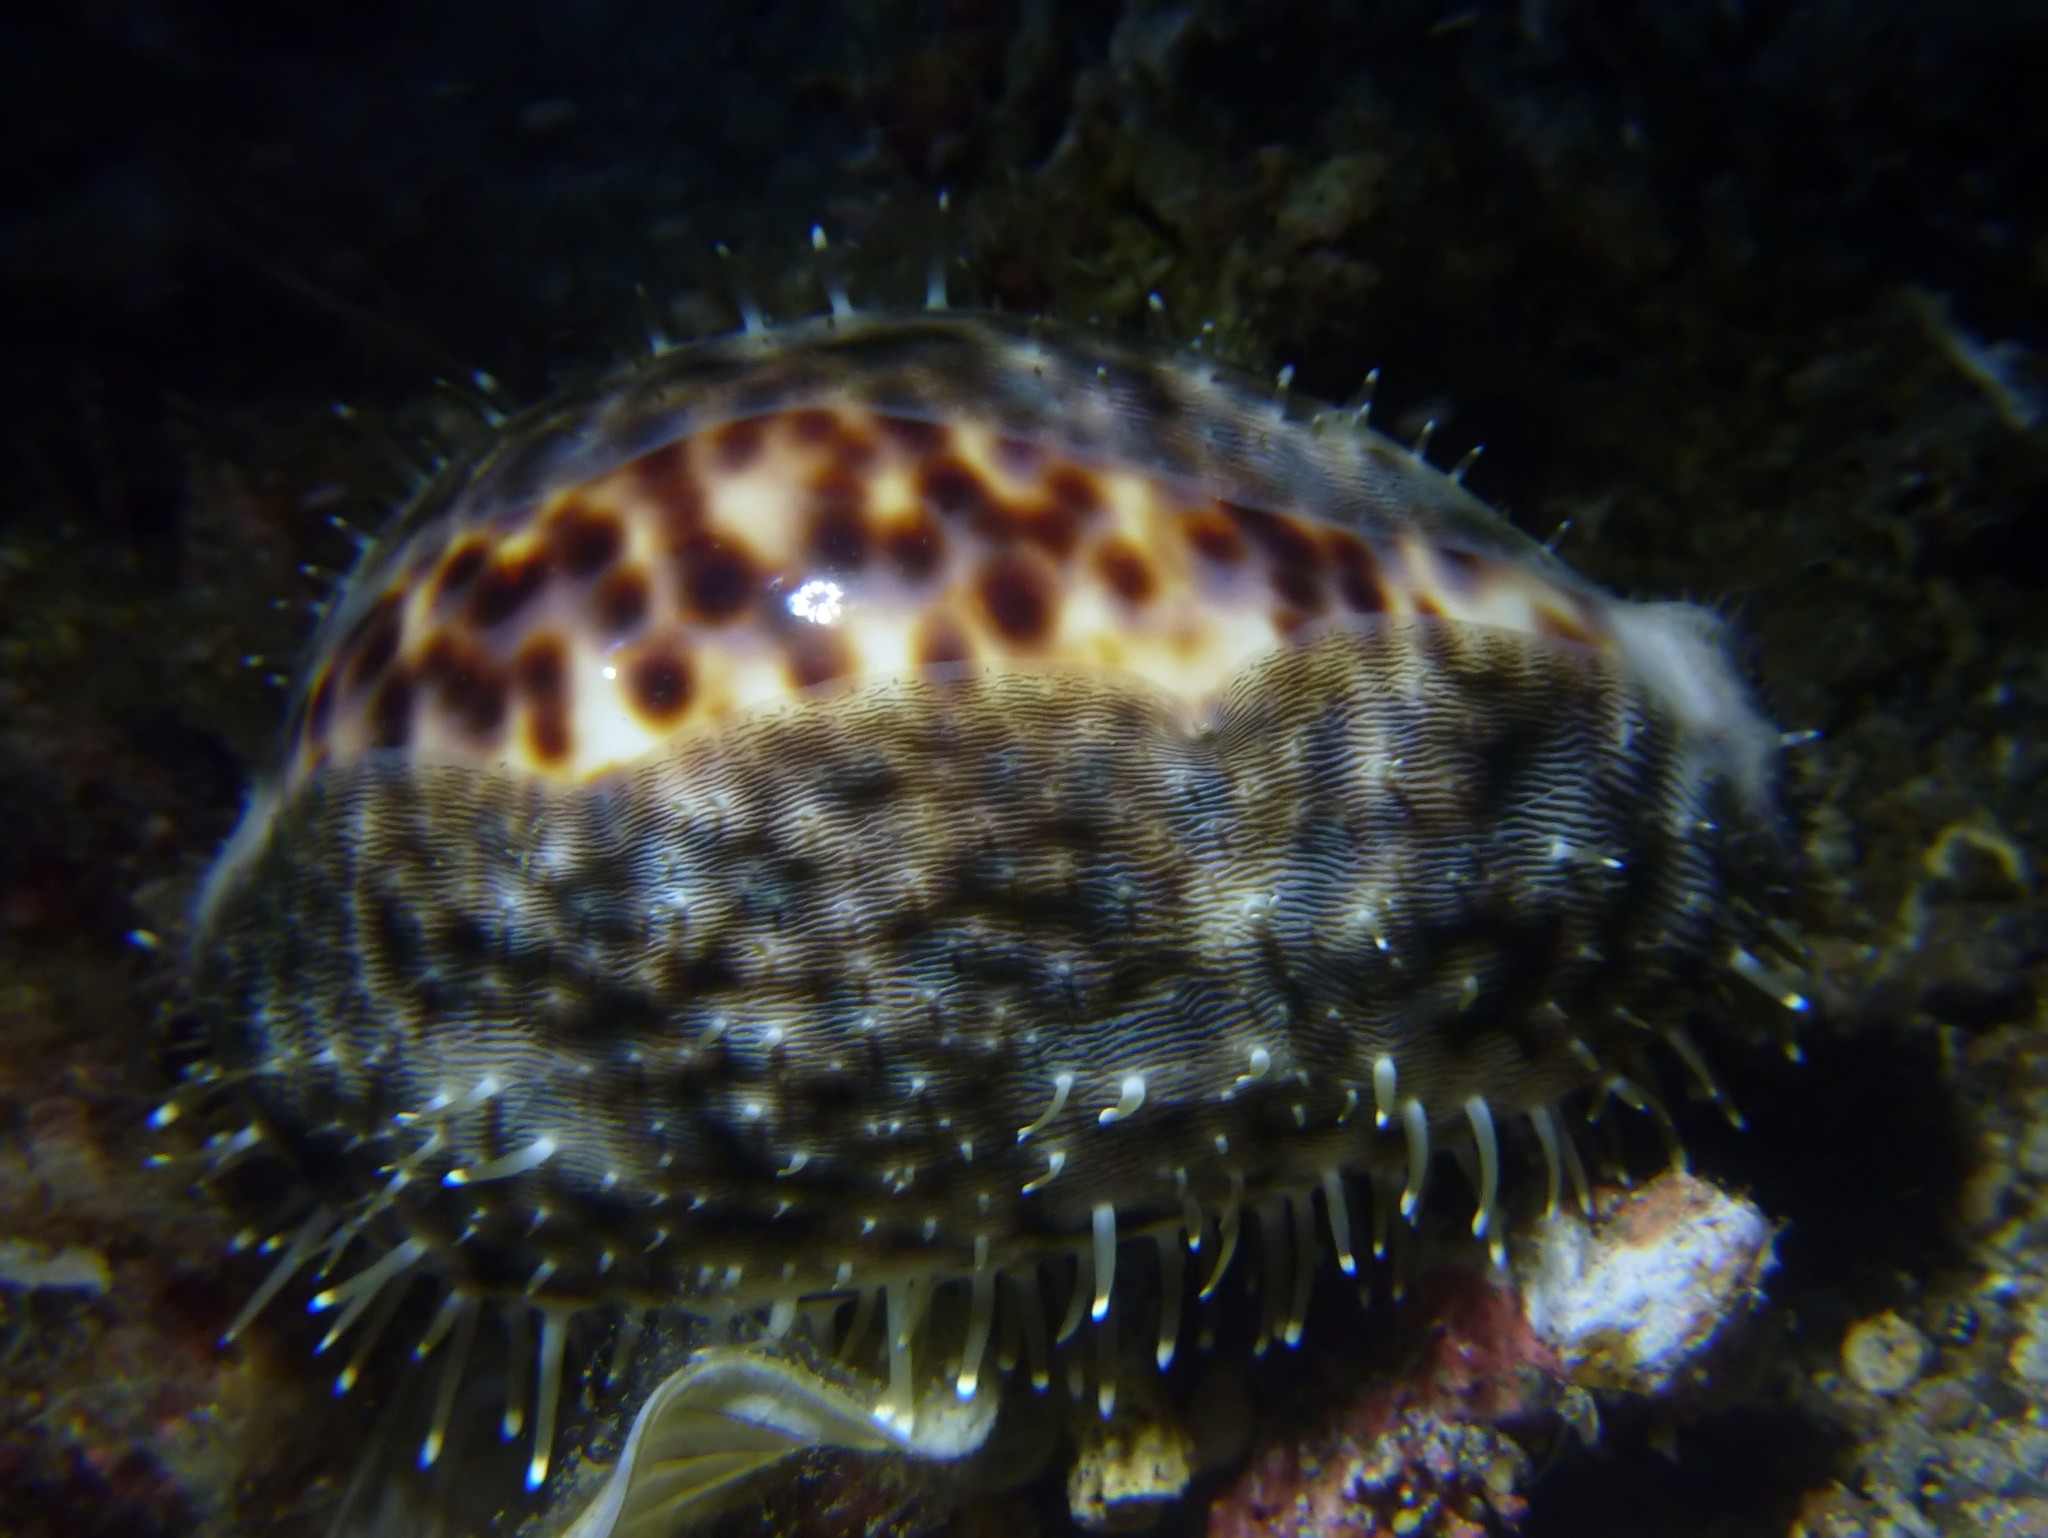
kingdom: Animalia
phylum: Mollusca
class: Gastropoda
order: Littorinimorpha
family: Cypraeidae
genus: Cypraea
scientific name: Cypraea tigris
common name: Tiger cowrie
